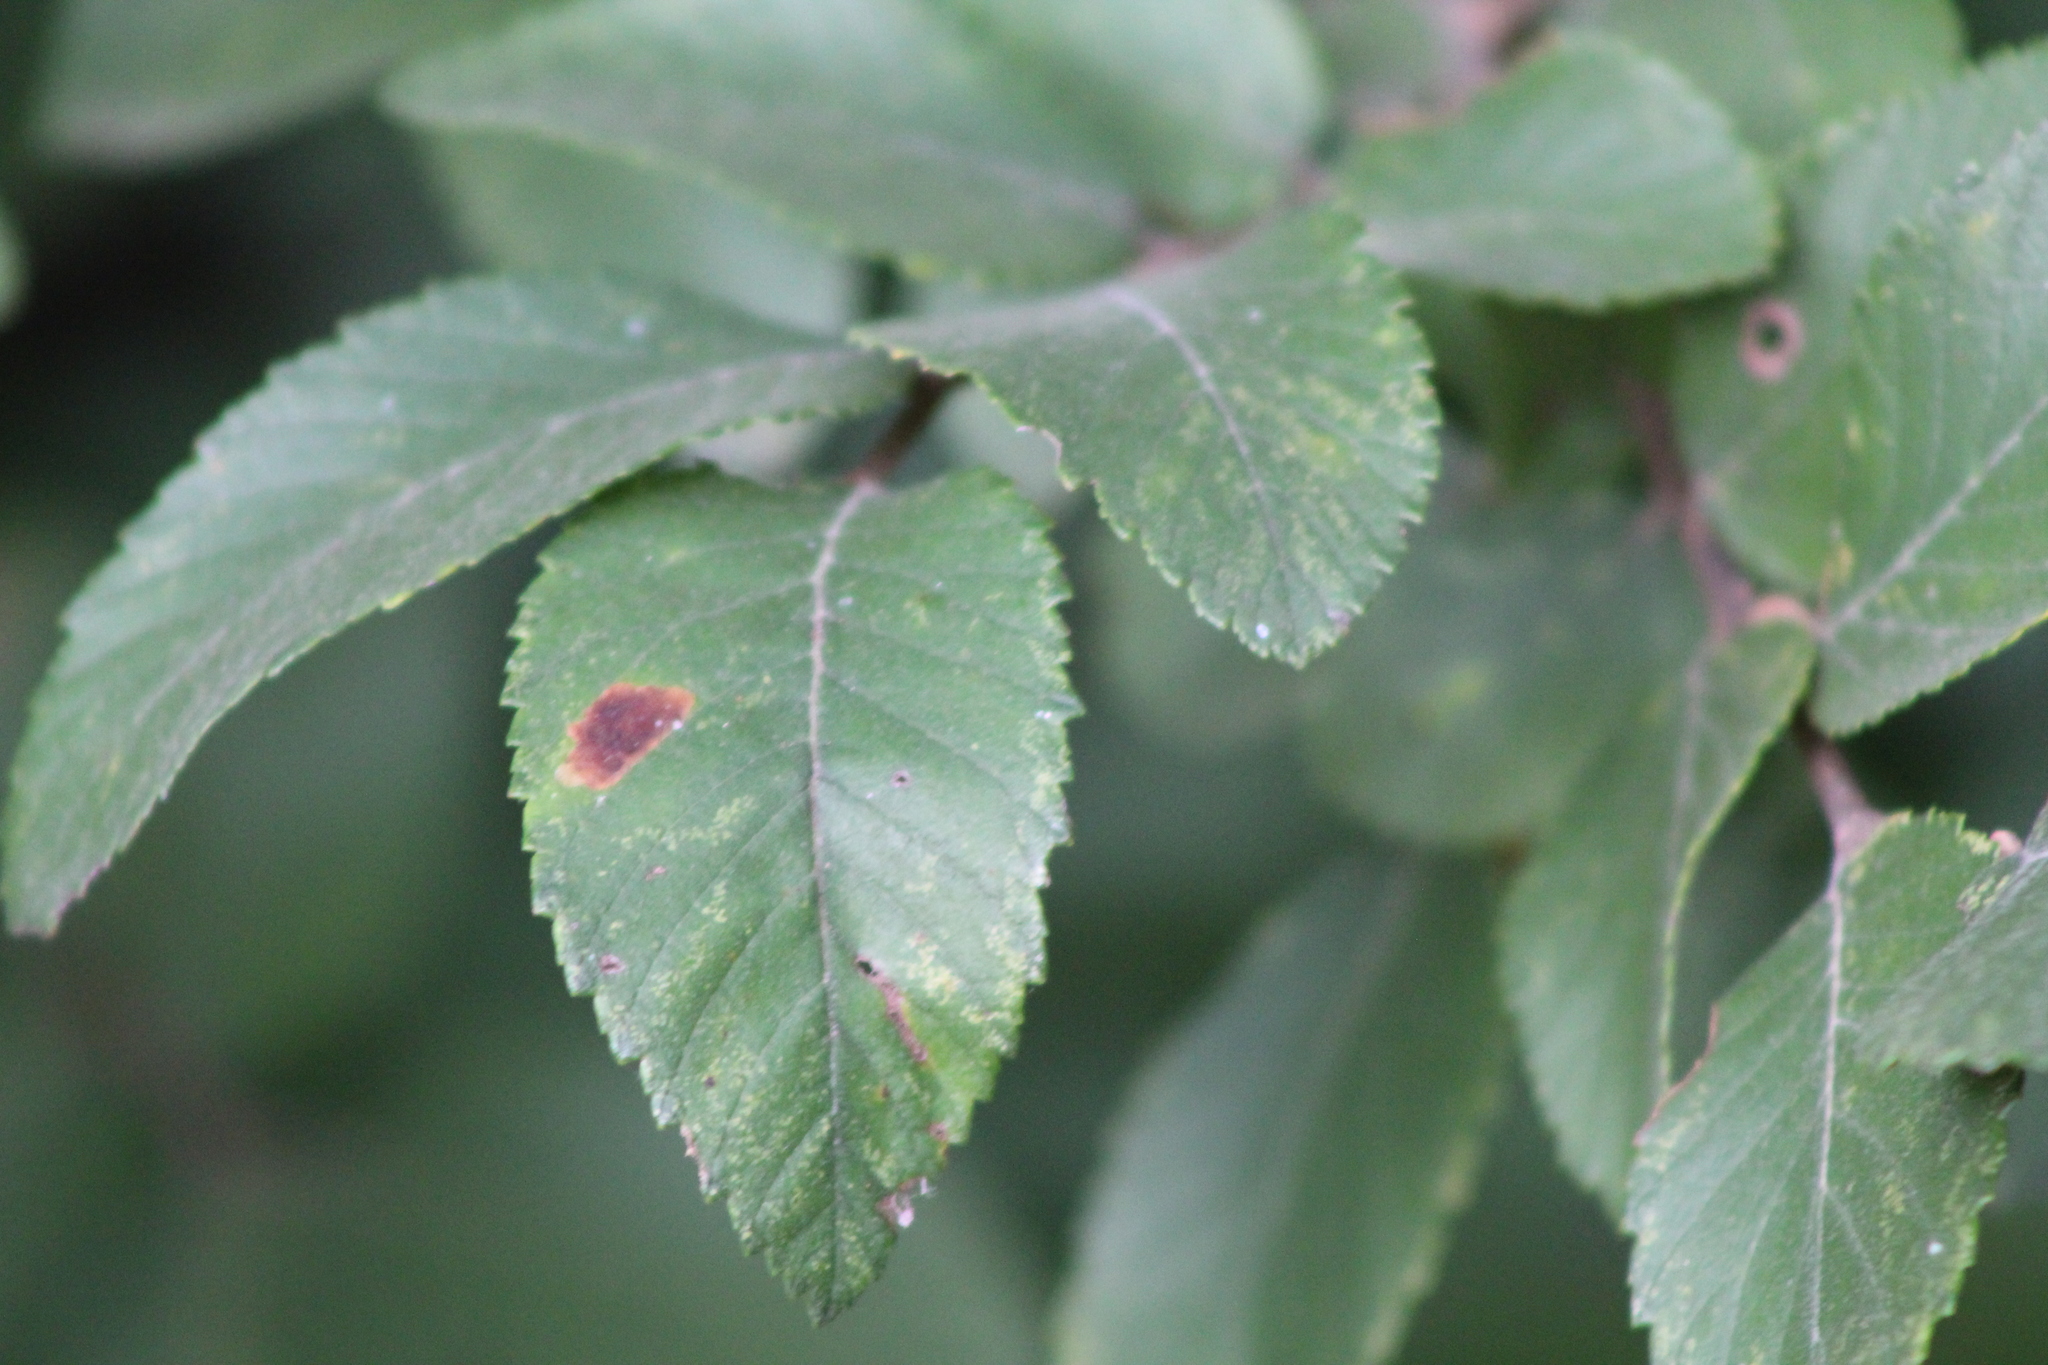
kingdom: Plantae
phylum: Tracheophyta
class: Magnoliopsida
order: Rosales
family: Ulmaceae
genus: Ulmus
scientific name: Ulmus crassifolia
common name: Basket elm
